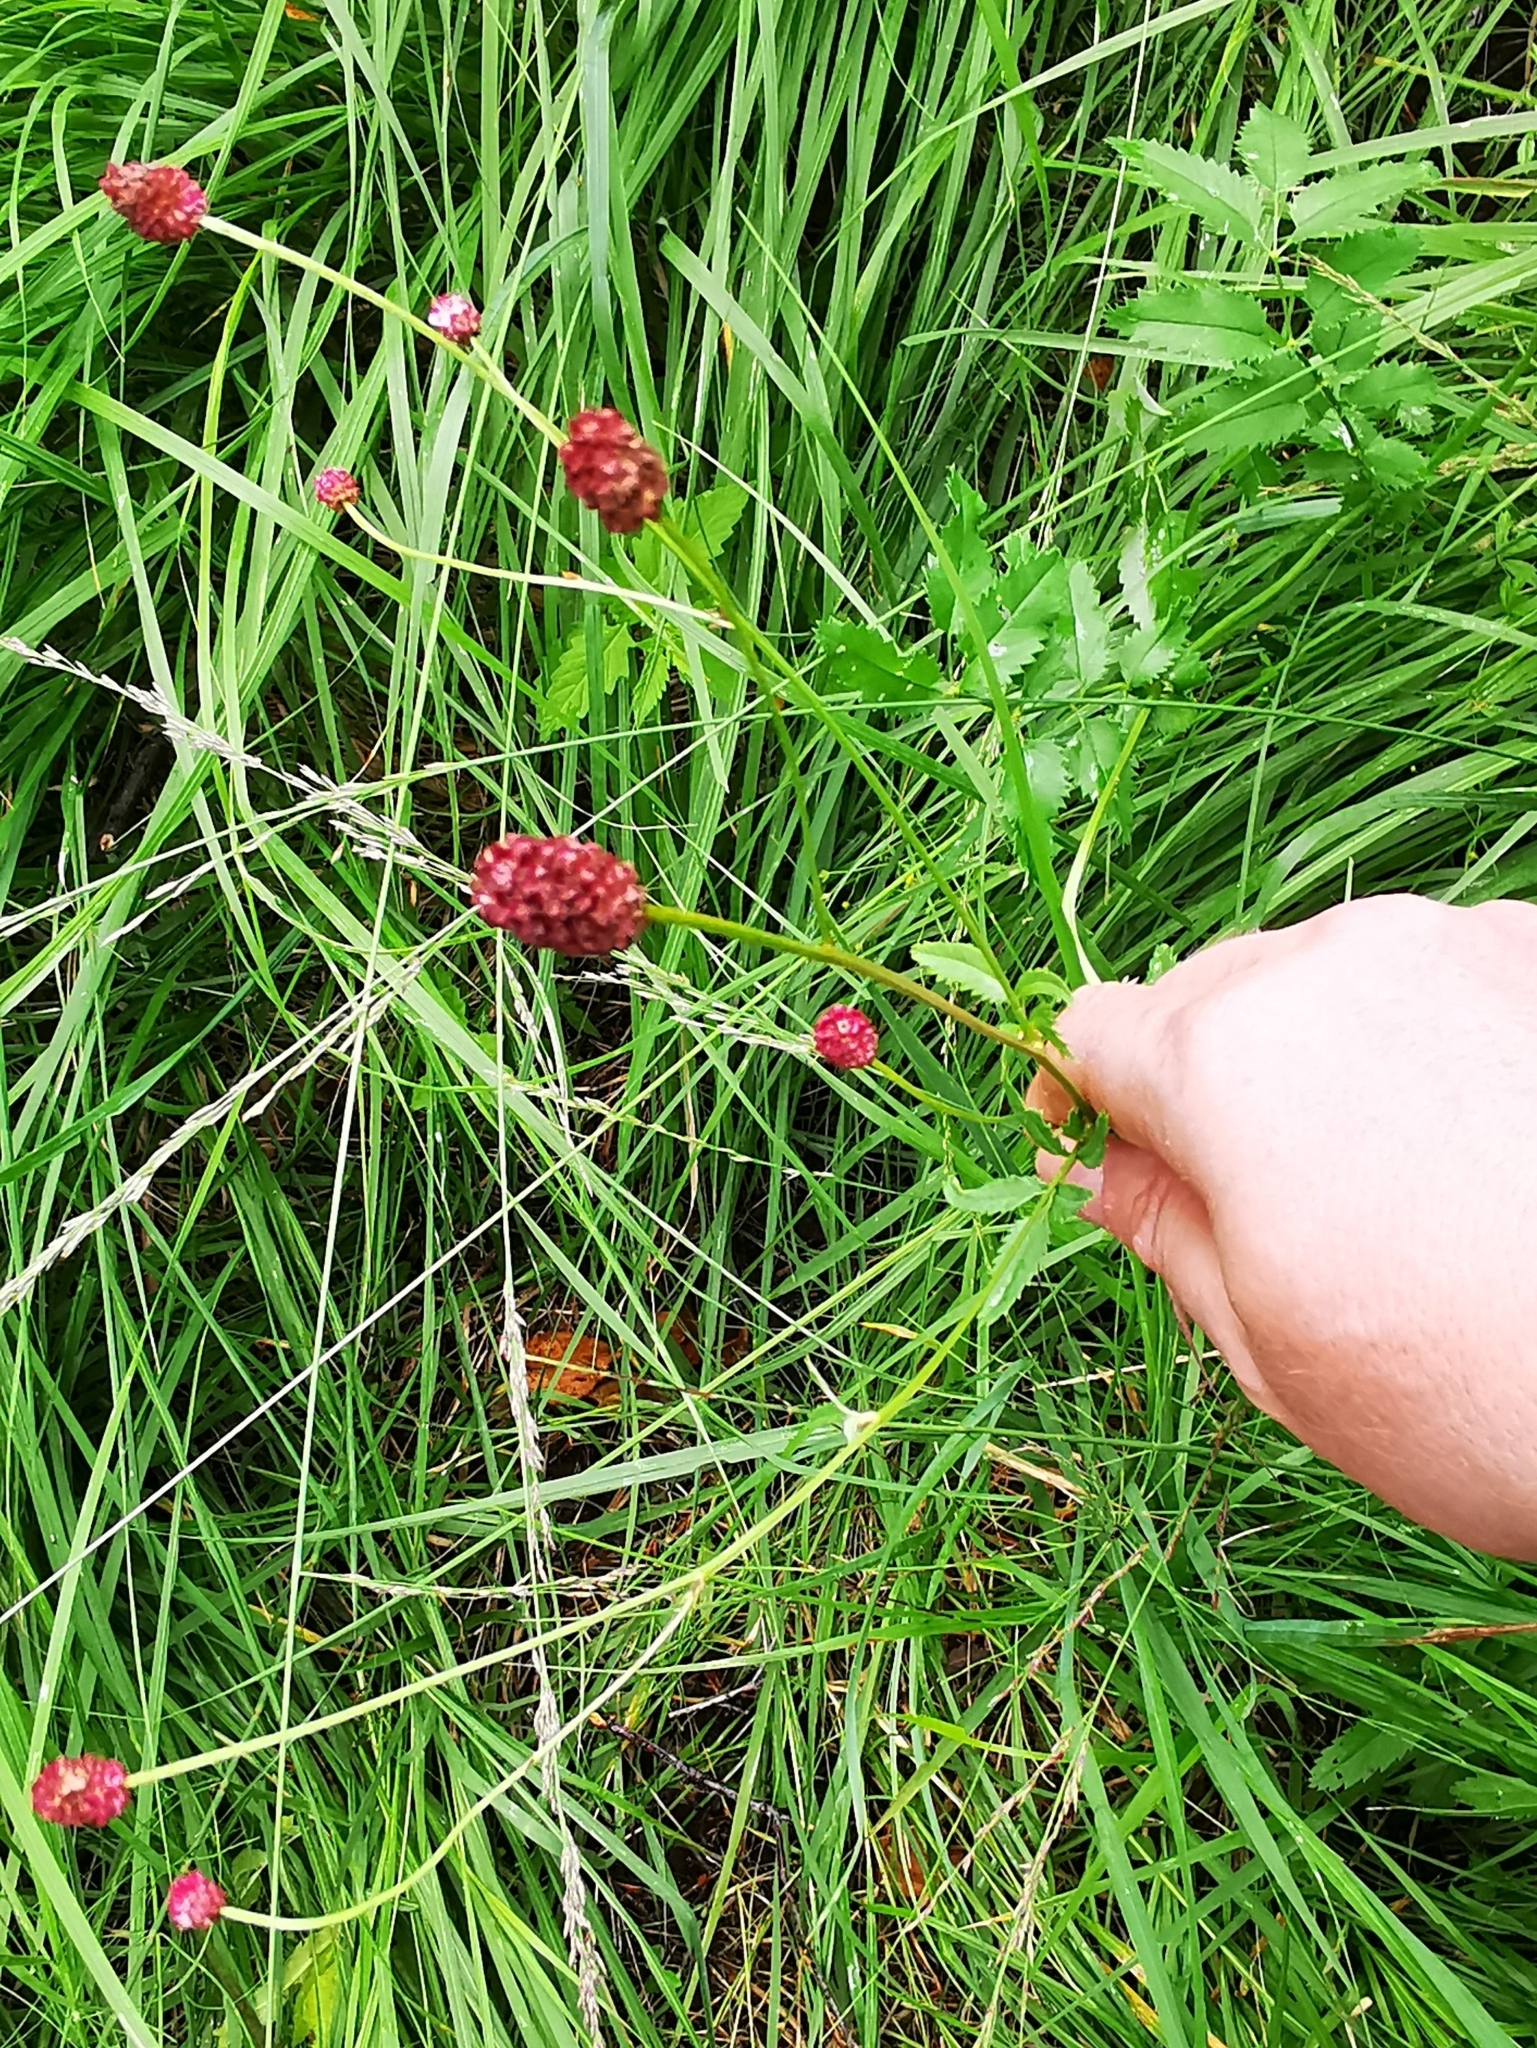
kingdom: Plantae
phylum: Tracheophyta
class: Magnoliopsida
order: Rosales
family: Rosaceae
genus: Sanguisorba
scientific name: Sanguisorba officinalis
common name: Great burnet
